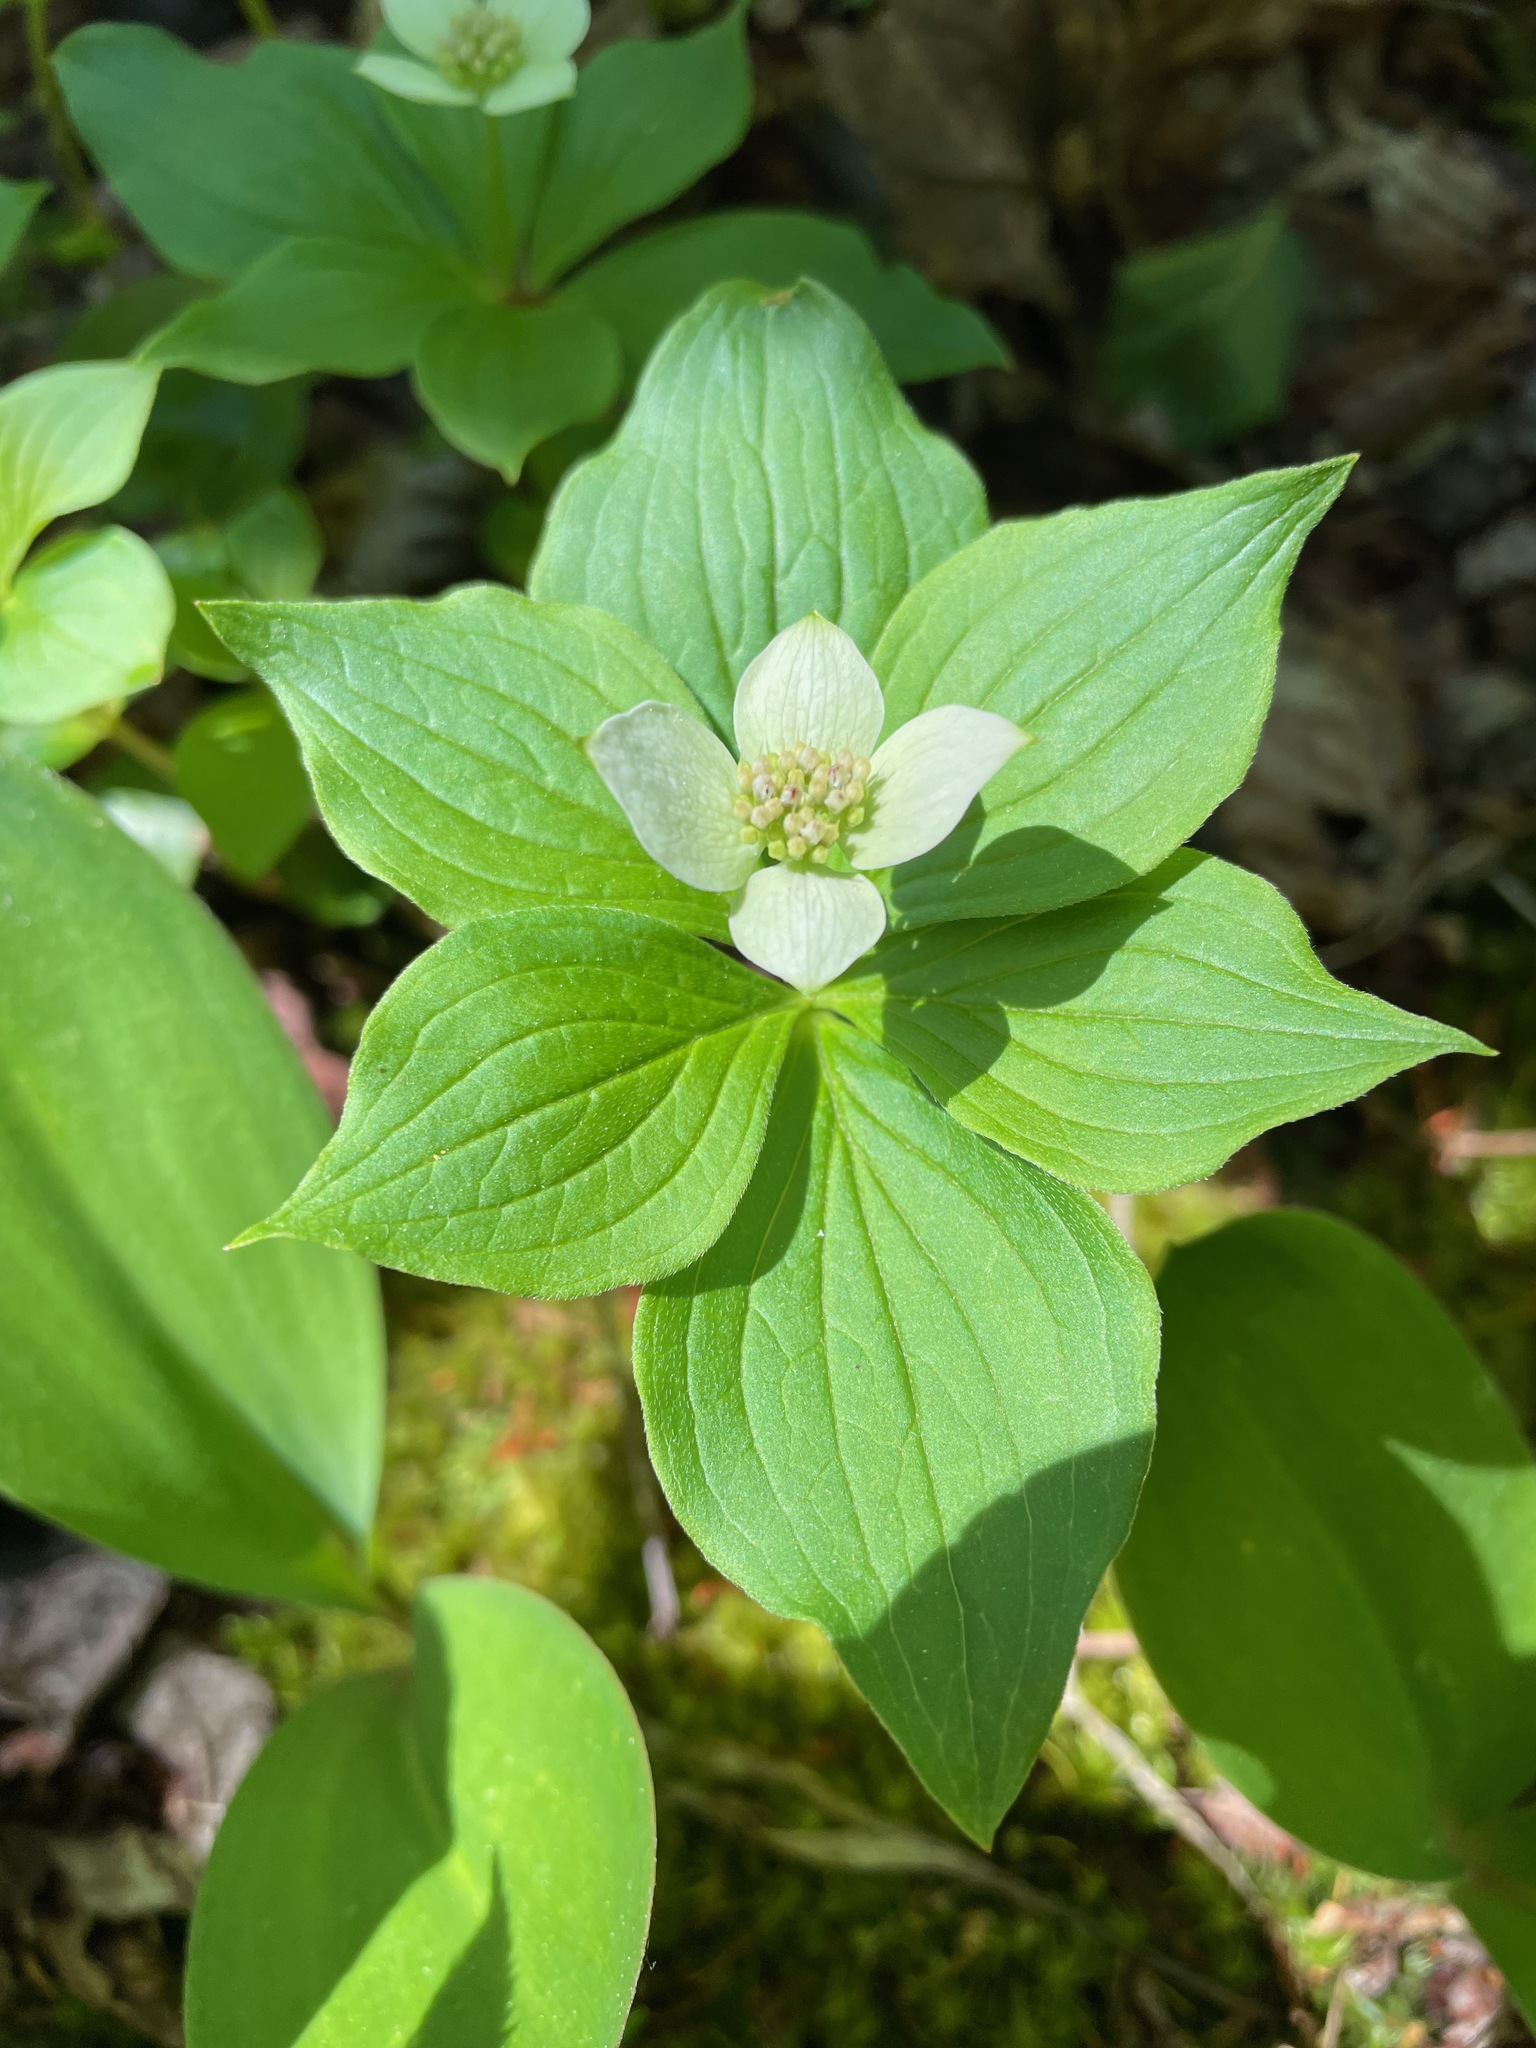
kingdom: Plantae
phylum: Tracheophyta
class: Magnoliopsida
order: Cornales
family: Cornaceae
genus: Cornus
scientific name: Cornus canadensis
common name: Creeping dogwood
